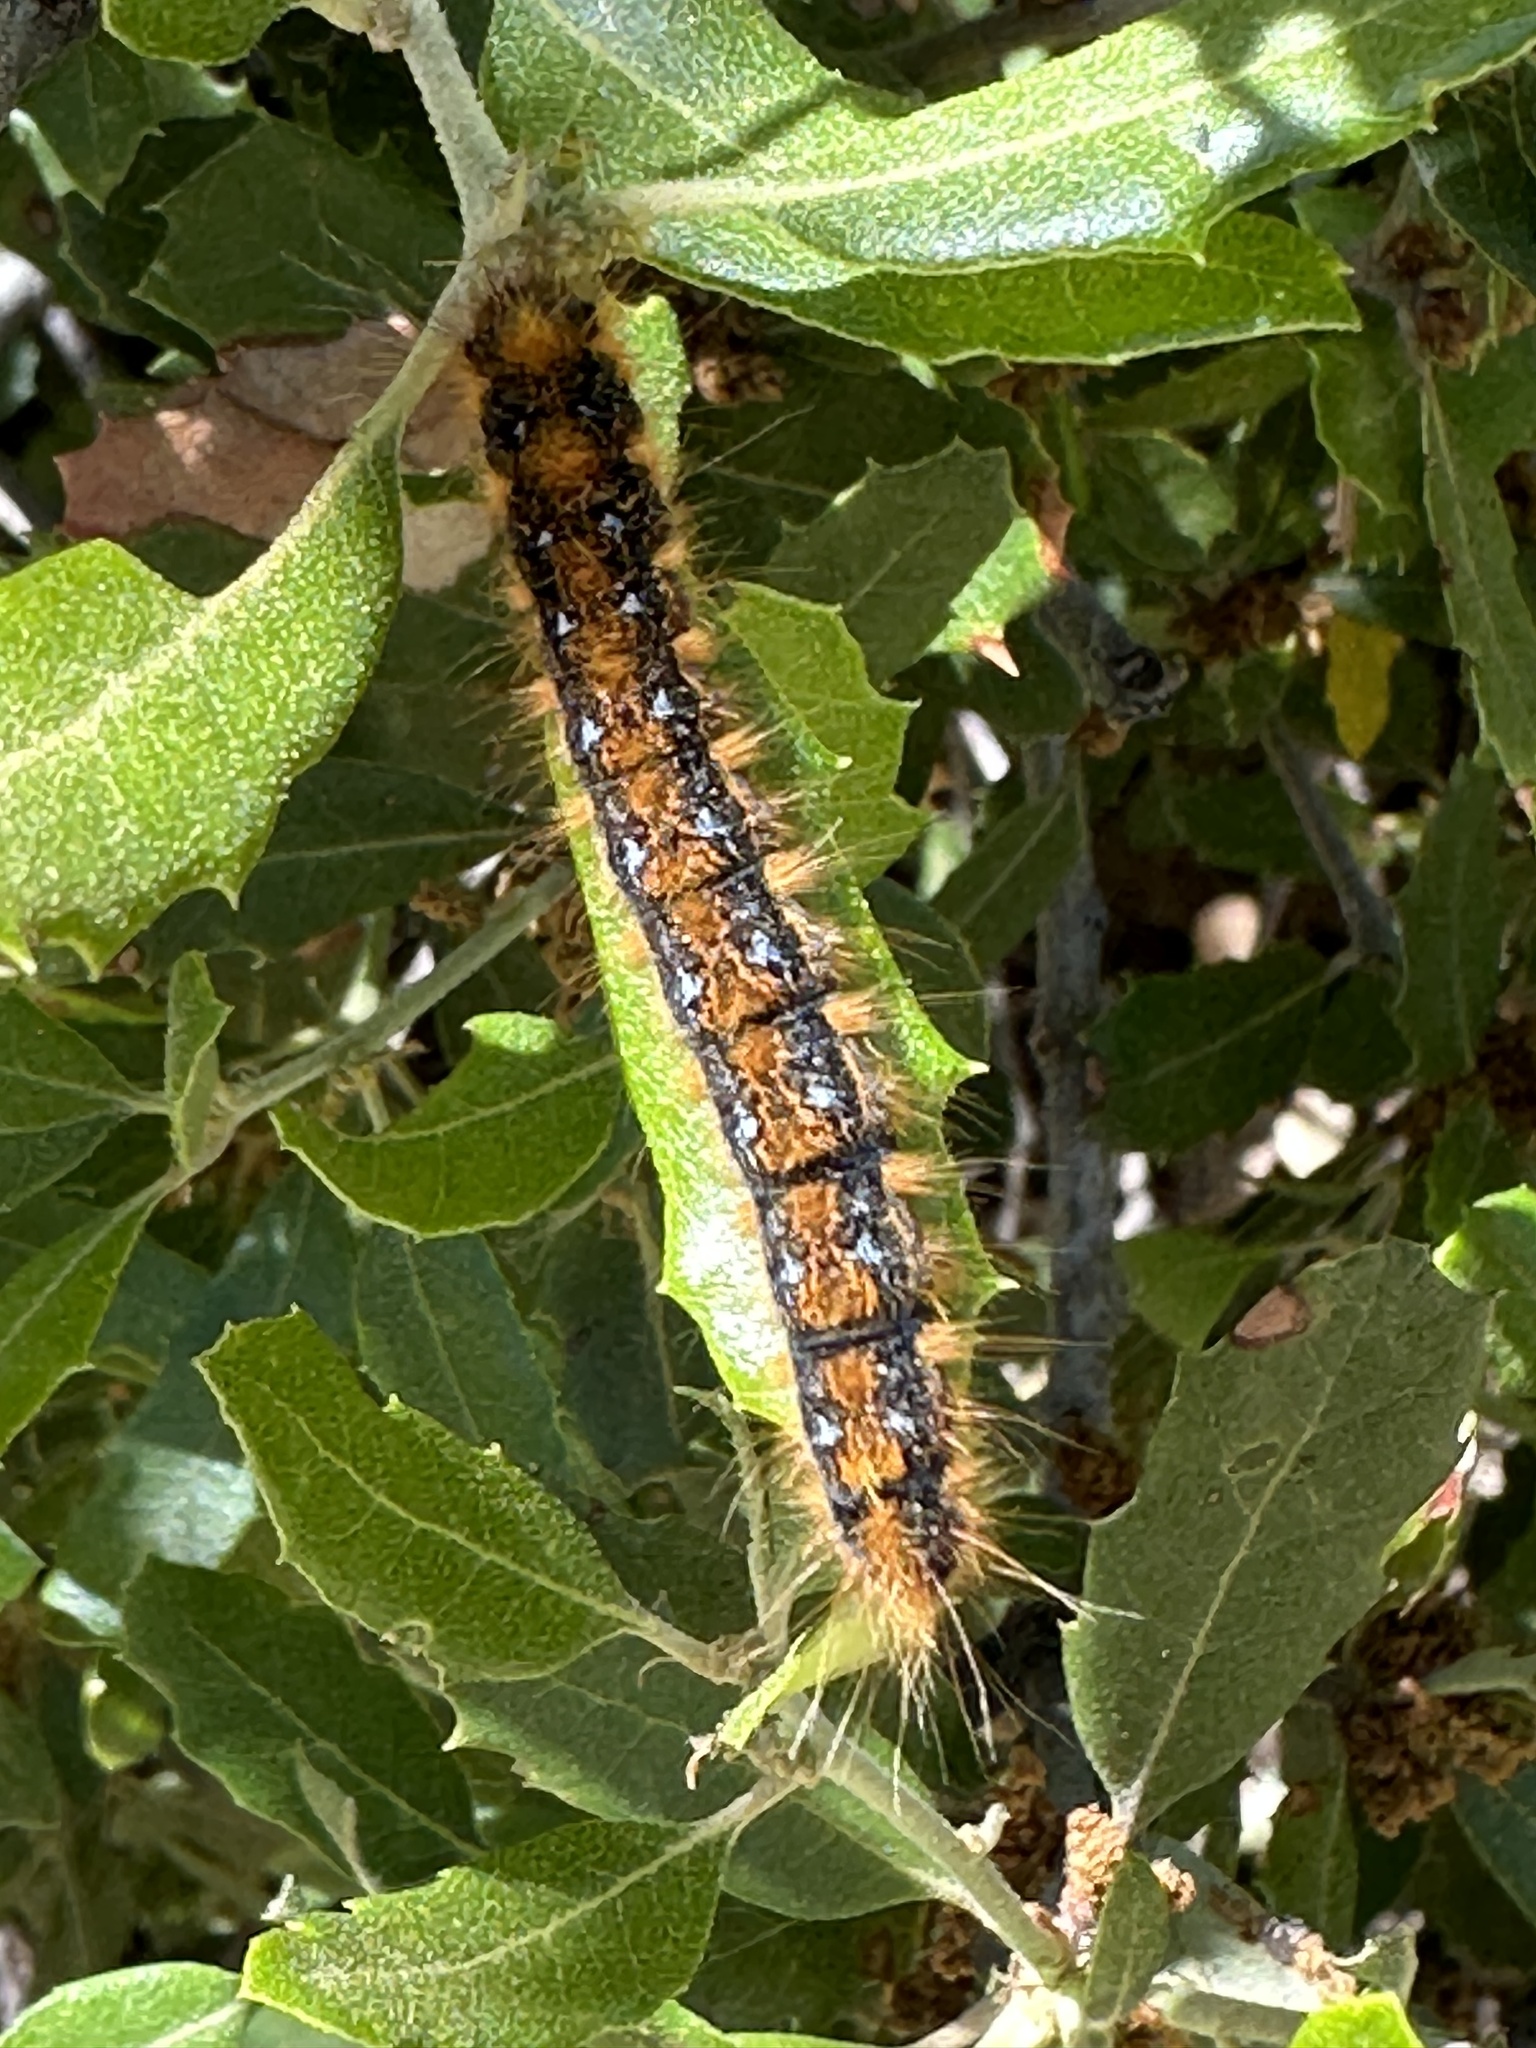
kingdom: Animalia
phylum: Arthropoda
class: Insecta
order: Lepidoptera
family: Lasiocampidae
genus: Malacosoma
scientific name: Malacosoma constricta
